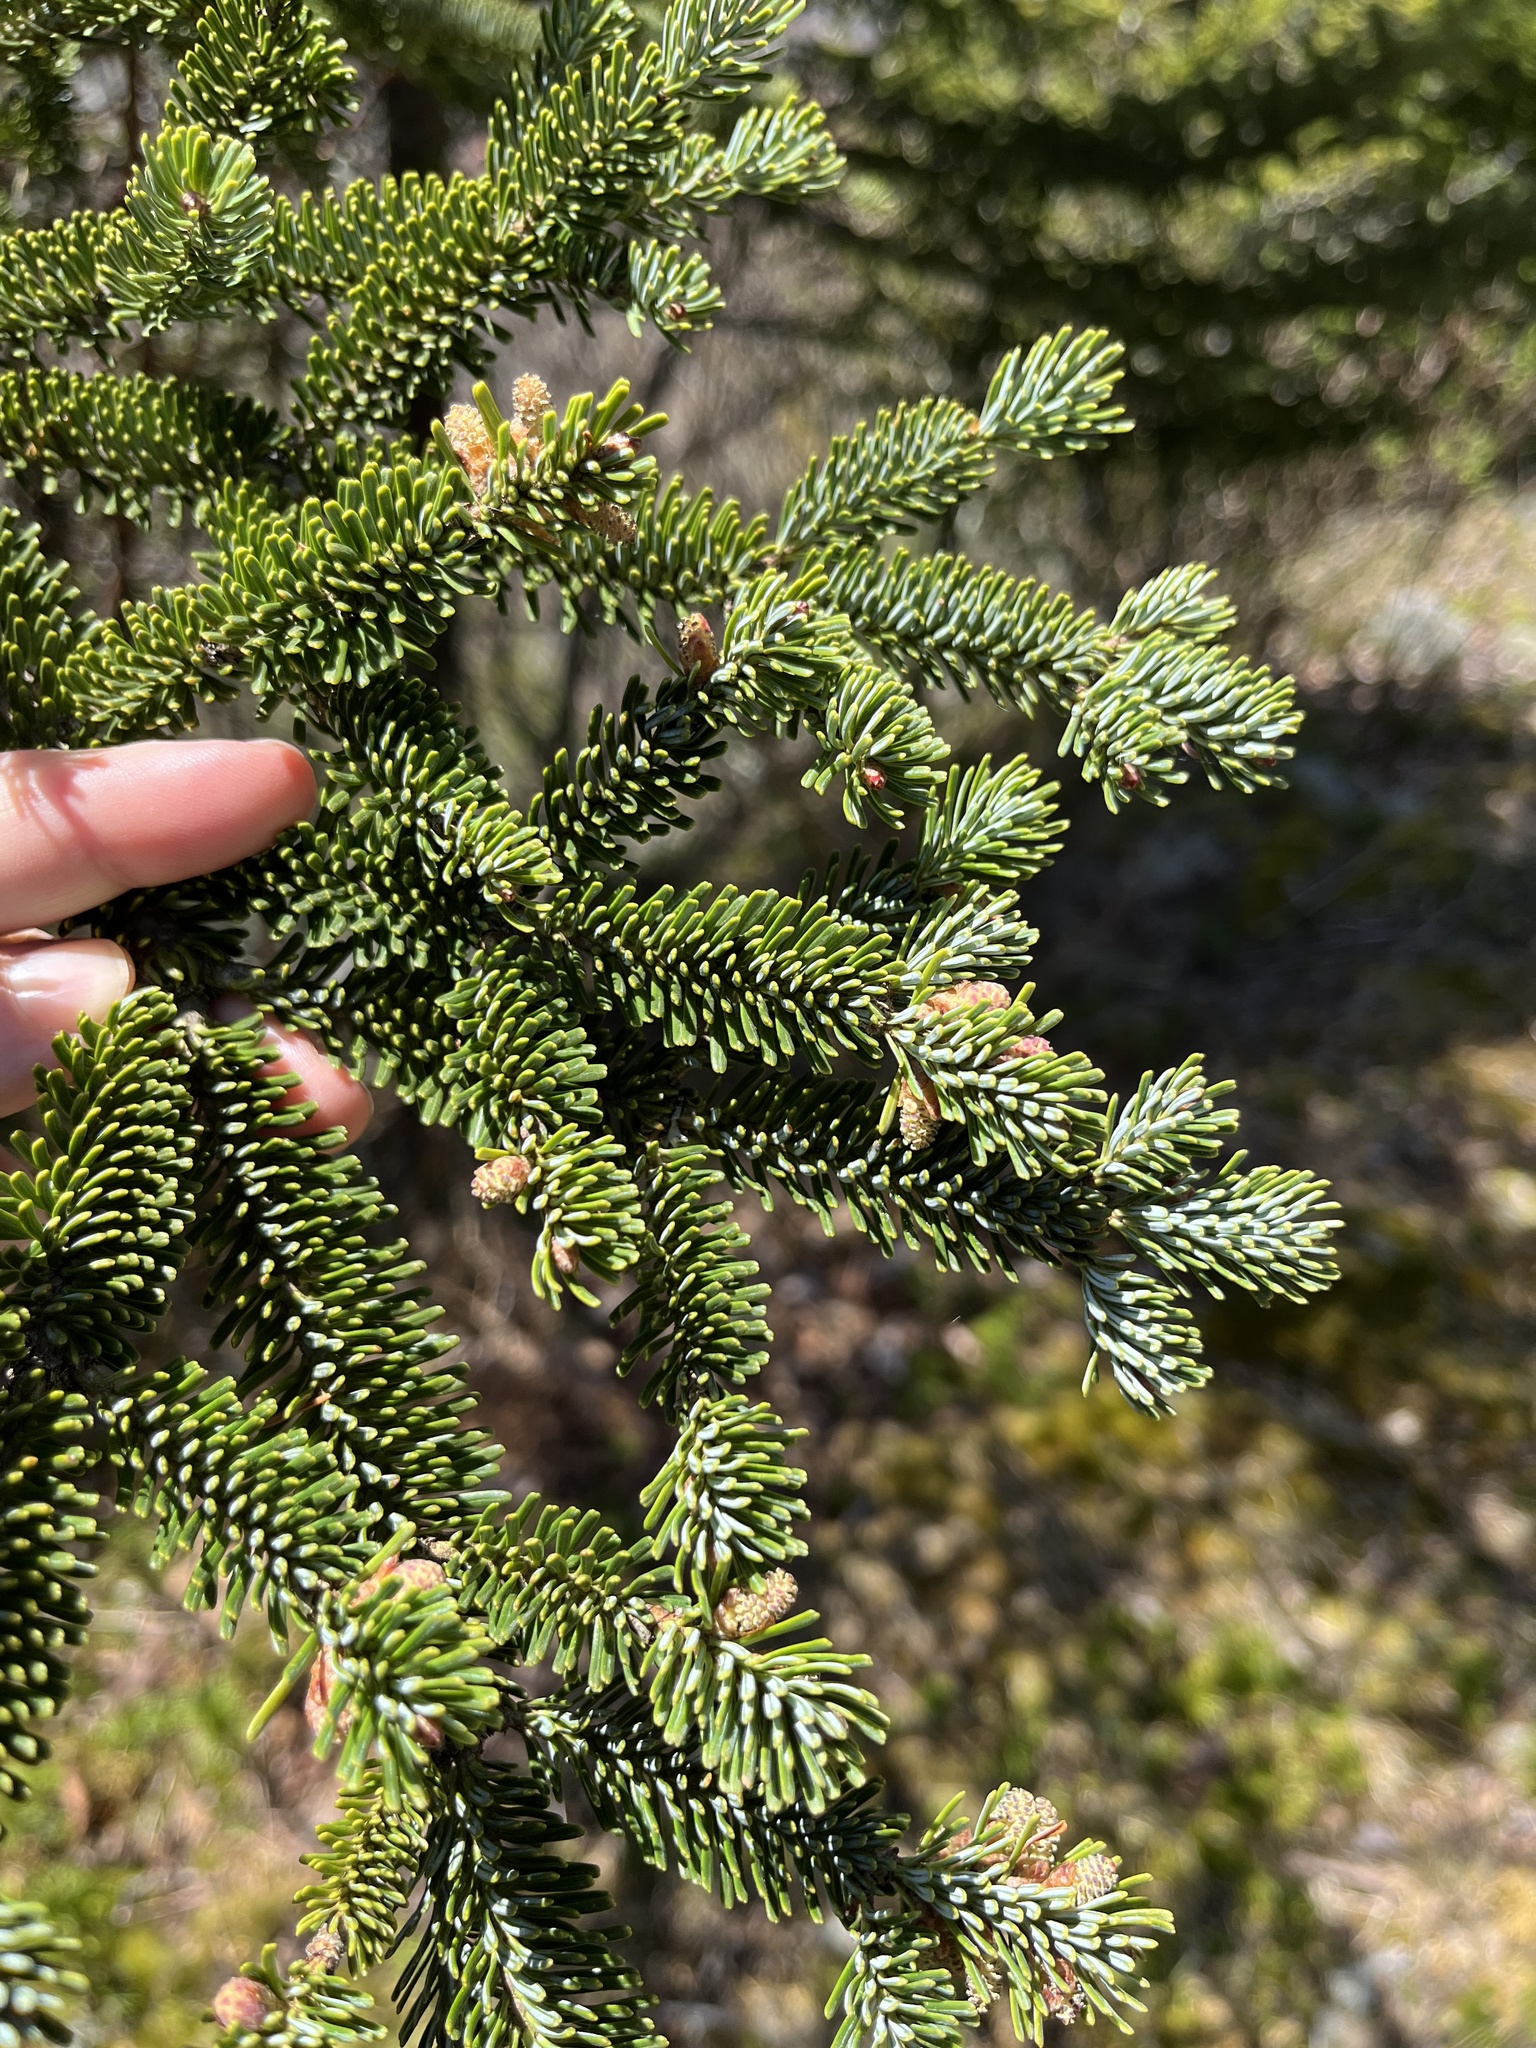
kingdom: Plantae
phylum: Tracheophyta
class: Pinopsida
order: Pinales
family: Pinaceae
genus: Abies
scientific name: Abies fraseri
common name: Fraser fir
